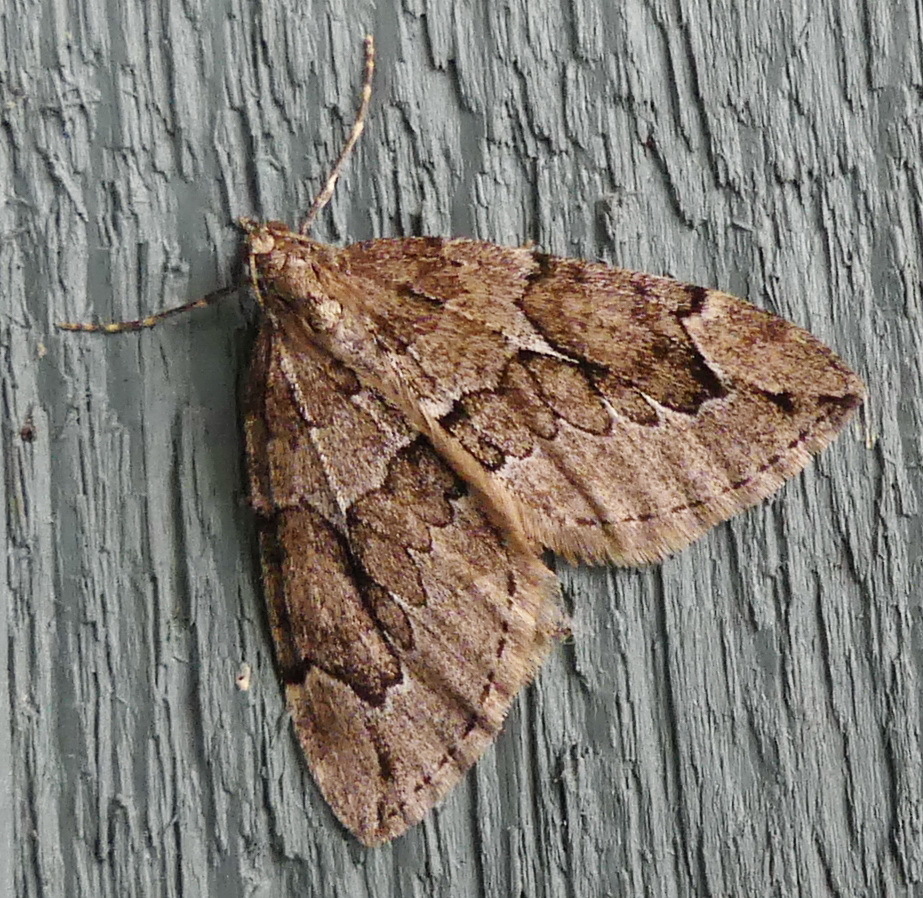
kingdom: Animalia
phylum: Arthropoda
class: Insecta
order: Lepidoptera
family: Geometridae
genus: Thera
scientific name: Thera juniperata
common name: Juniper carpet
